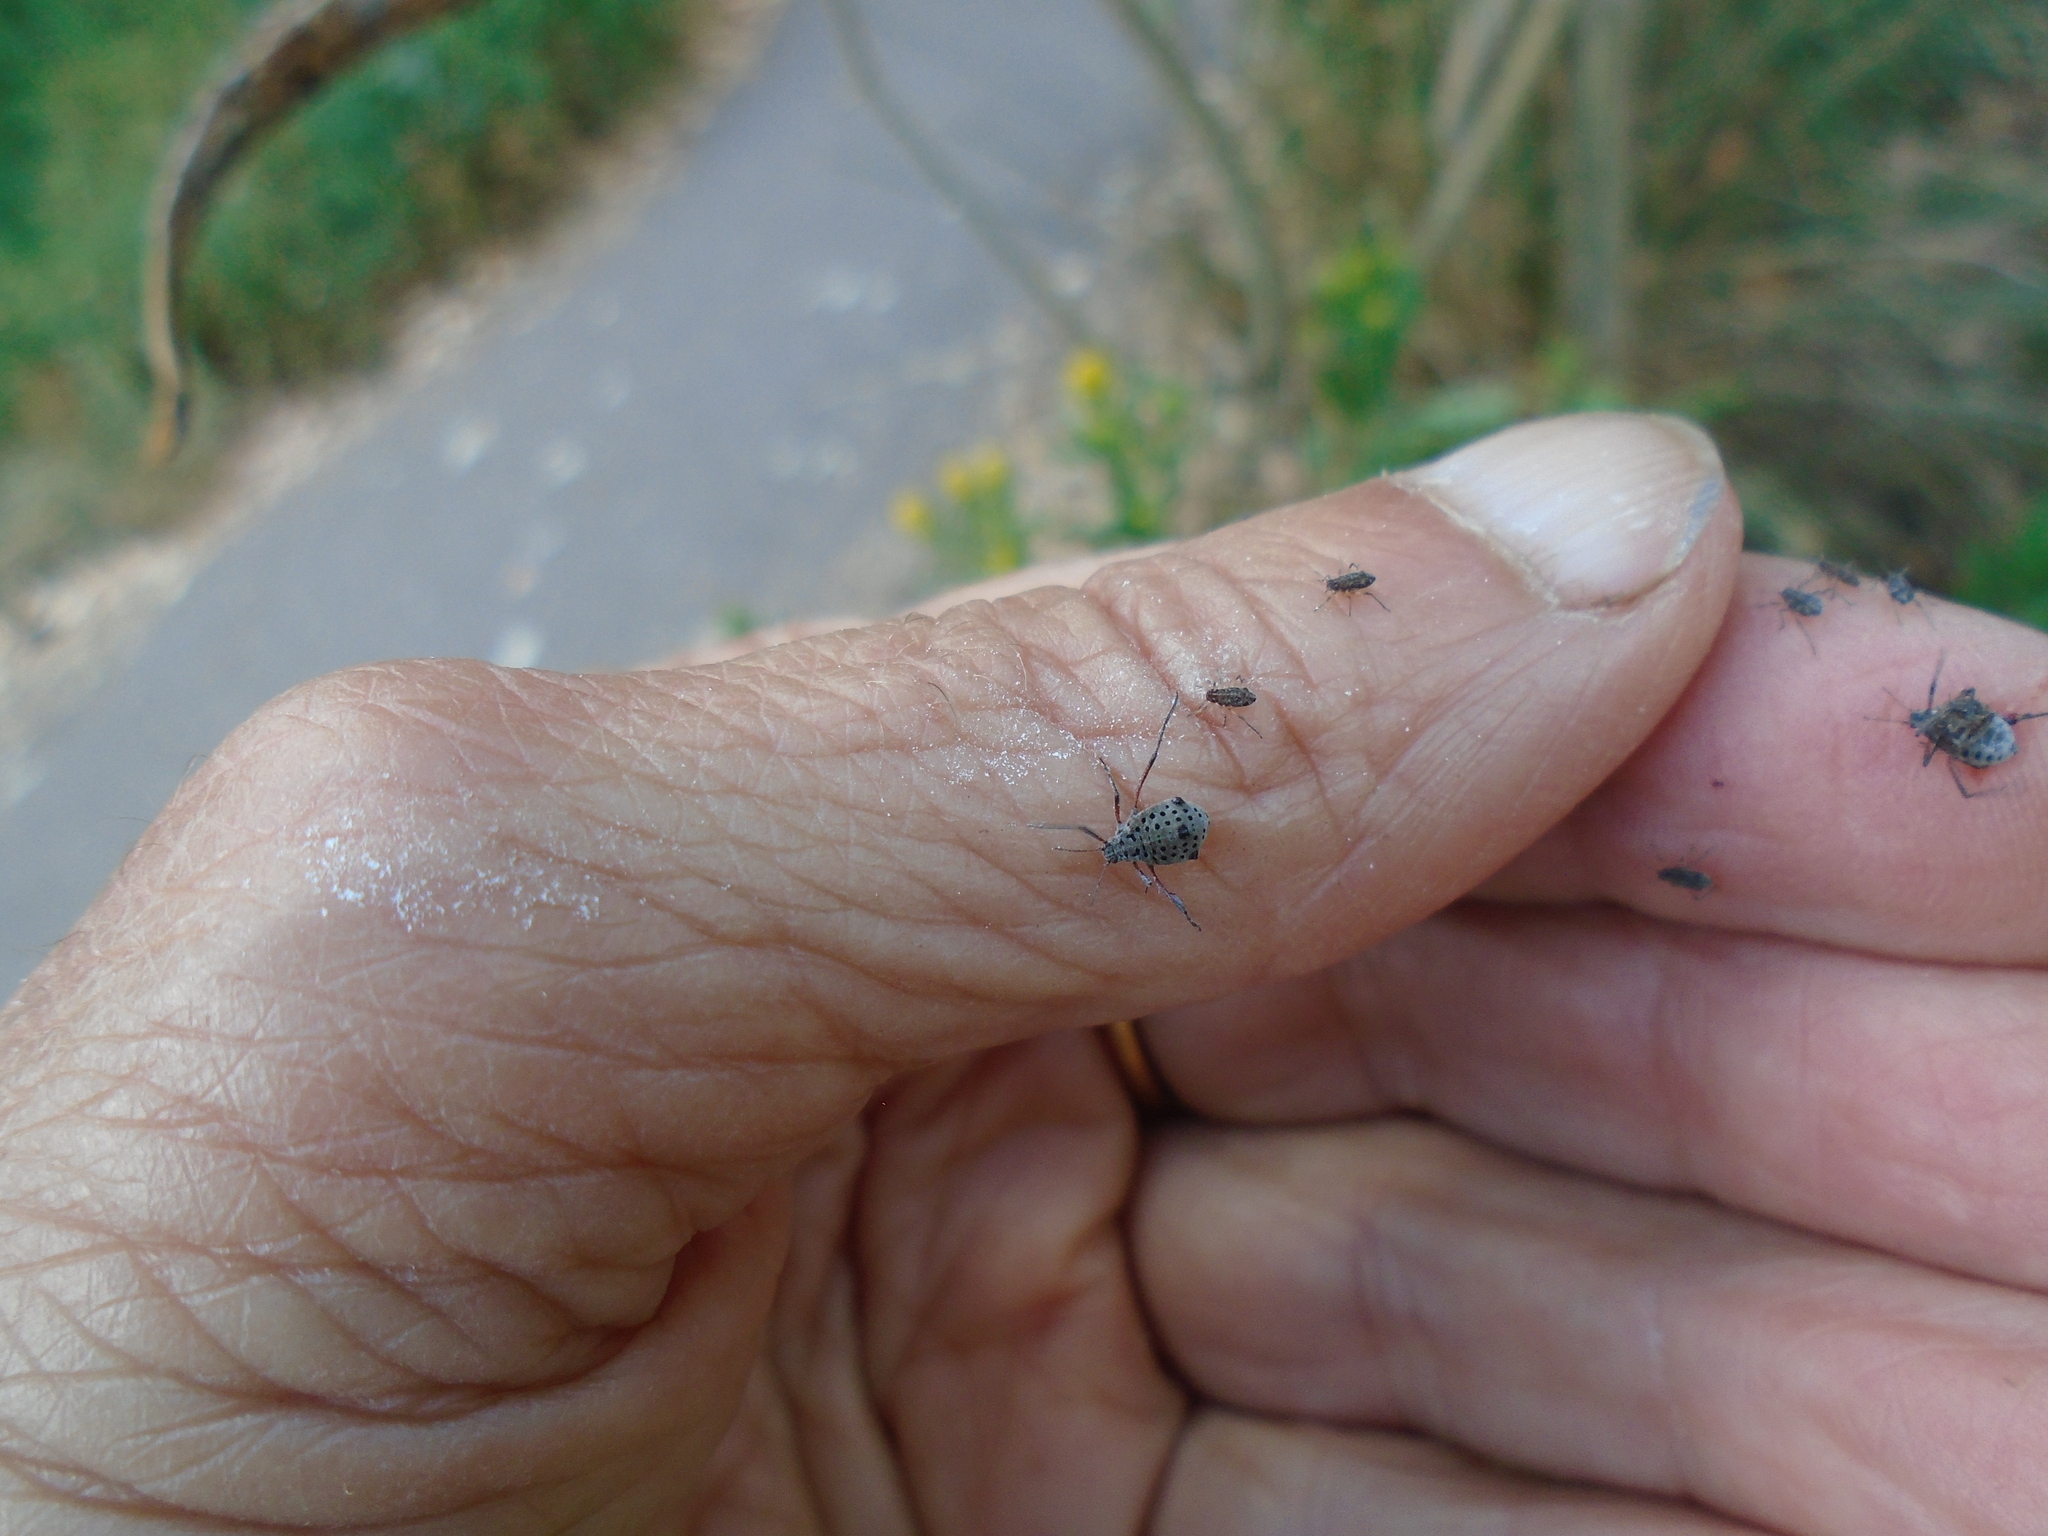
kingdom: Animalia
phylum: Arthropoda
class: Insecta
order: Hemiptera
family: Aphididae
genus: Tuberolachnus
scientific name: Tuberolachnus salignus
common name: Giant willow aphid
